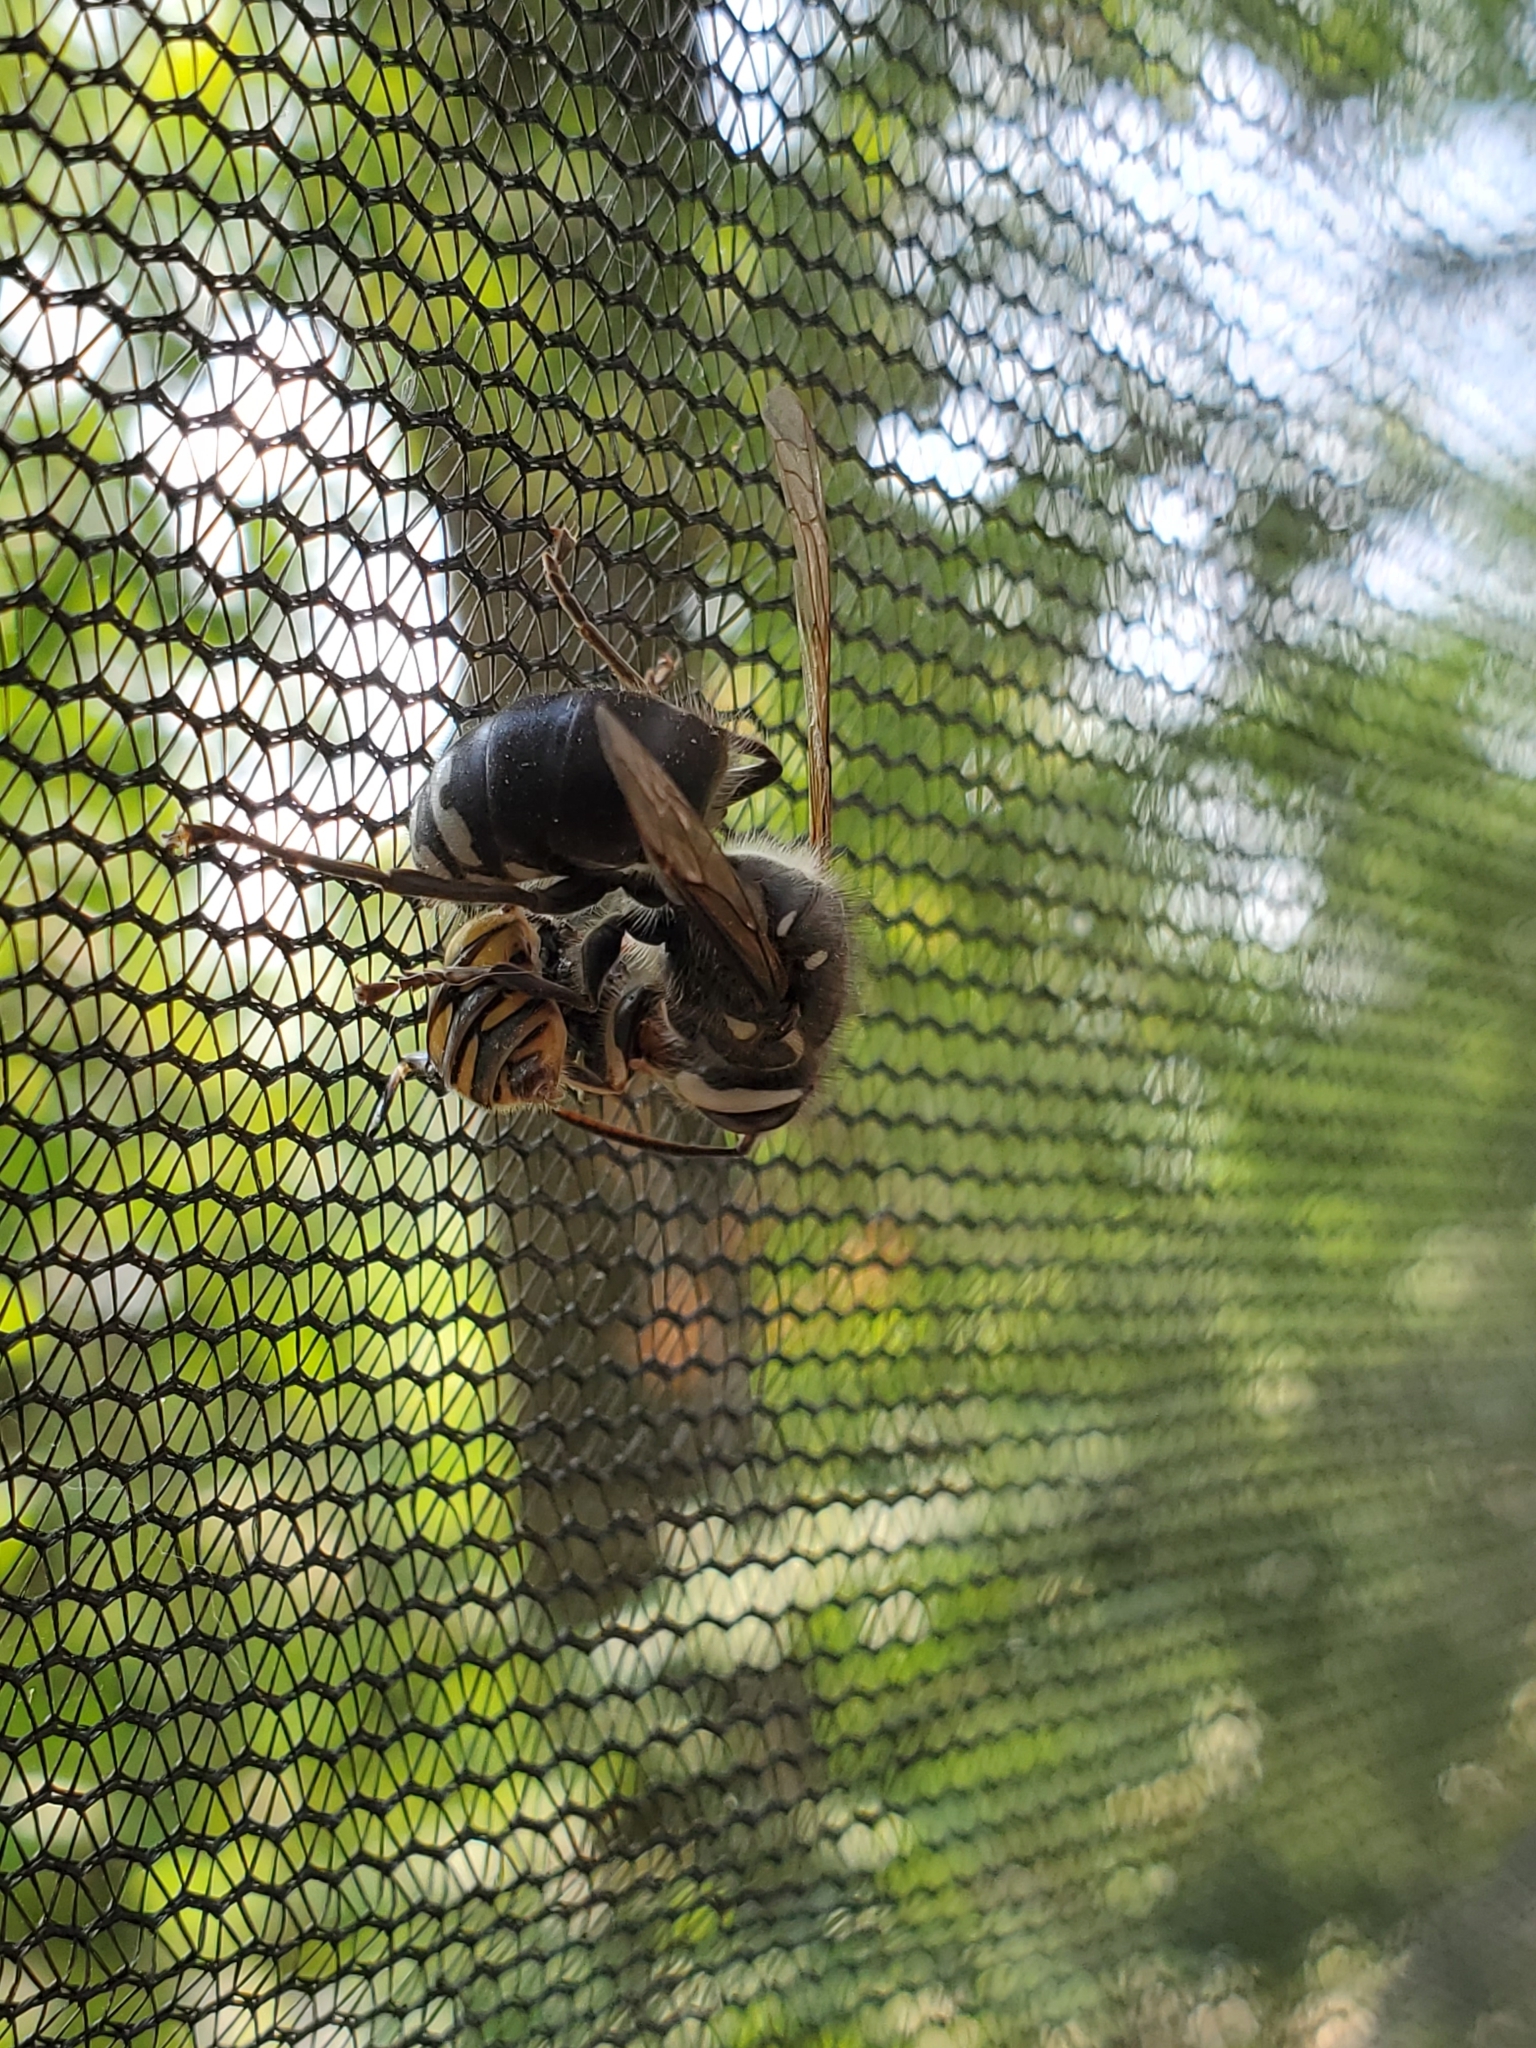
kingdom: Animalia
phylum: Arthropoda
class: Insecta
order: Hymenoptera
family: Vespidae
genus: Dolichovespula
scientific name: Dolichovespula maculata
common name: Bald-faced hornet
